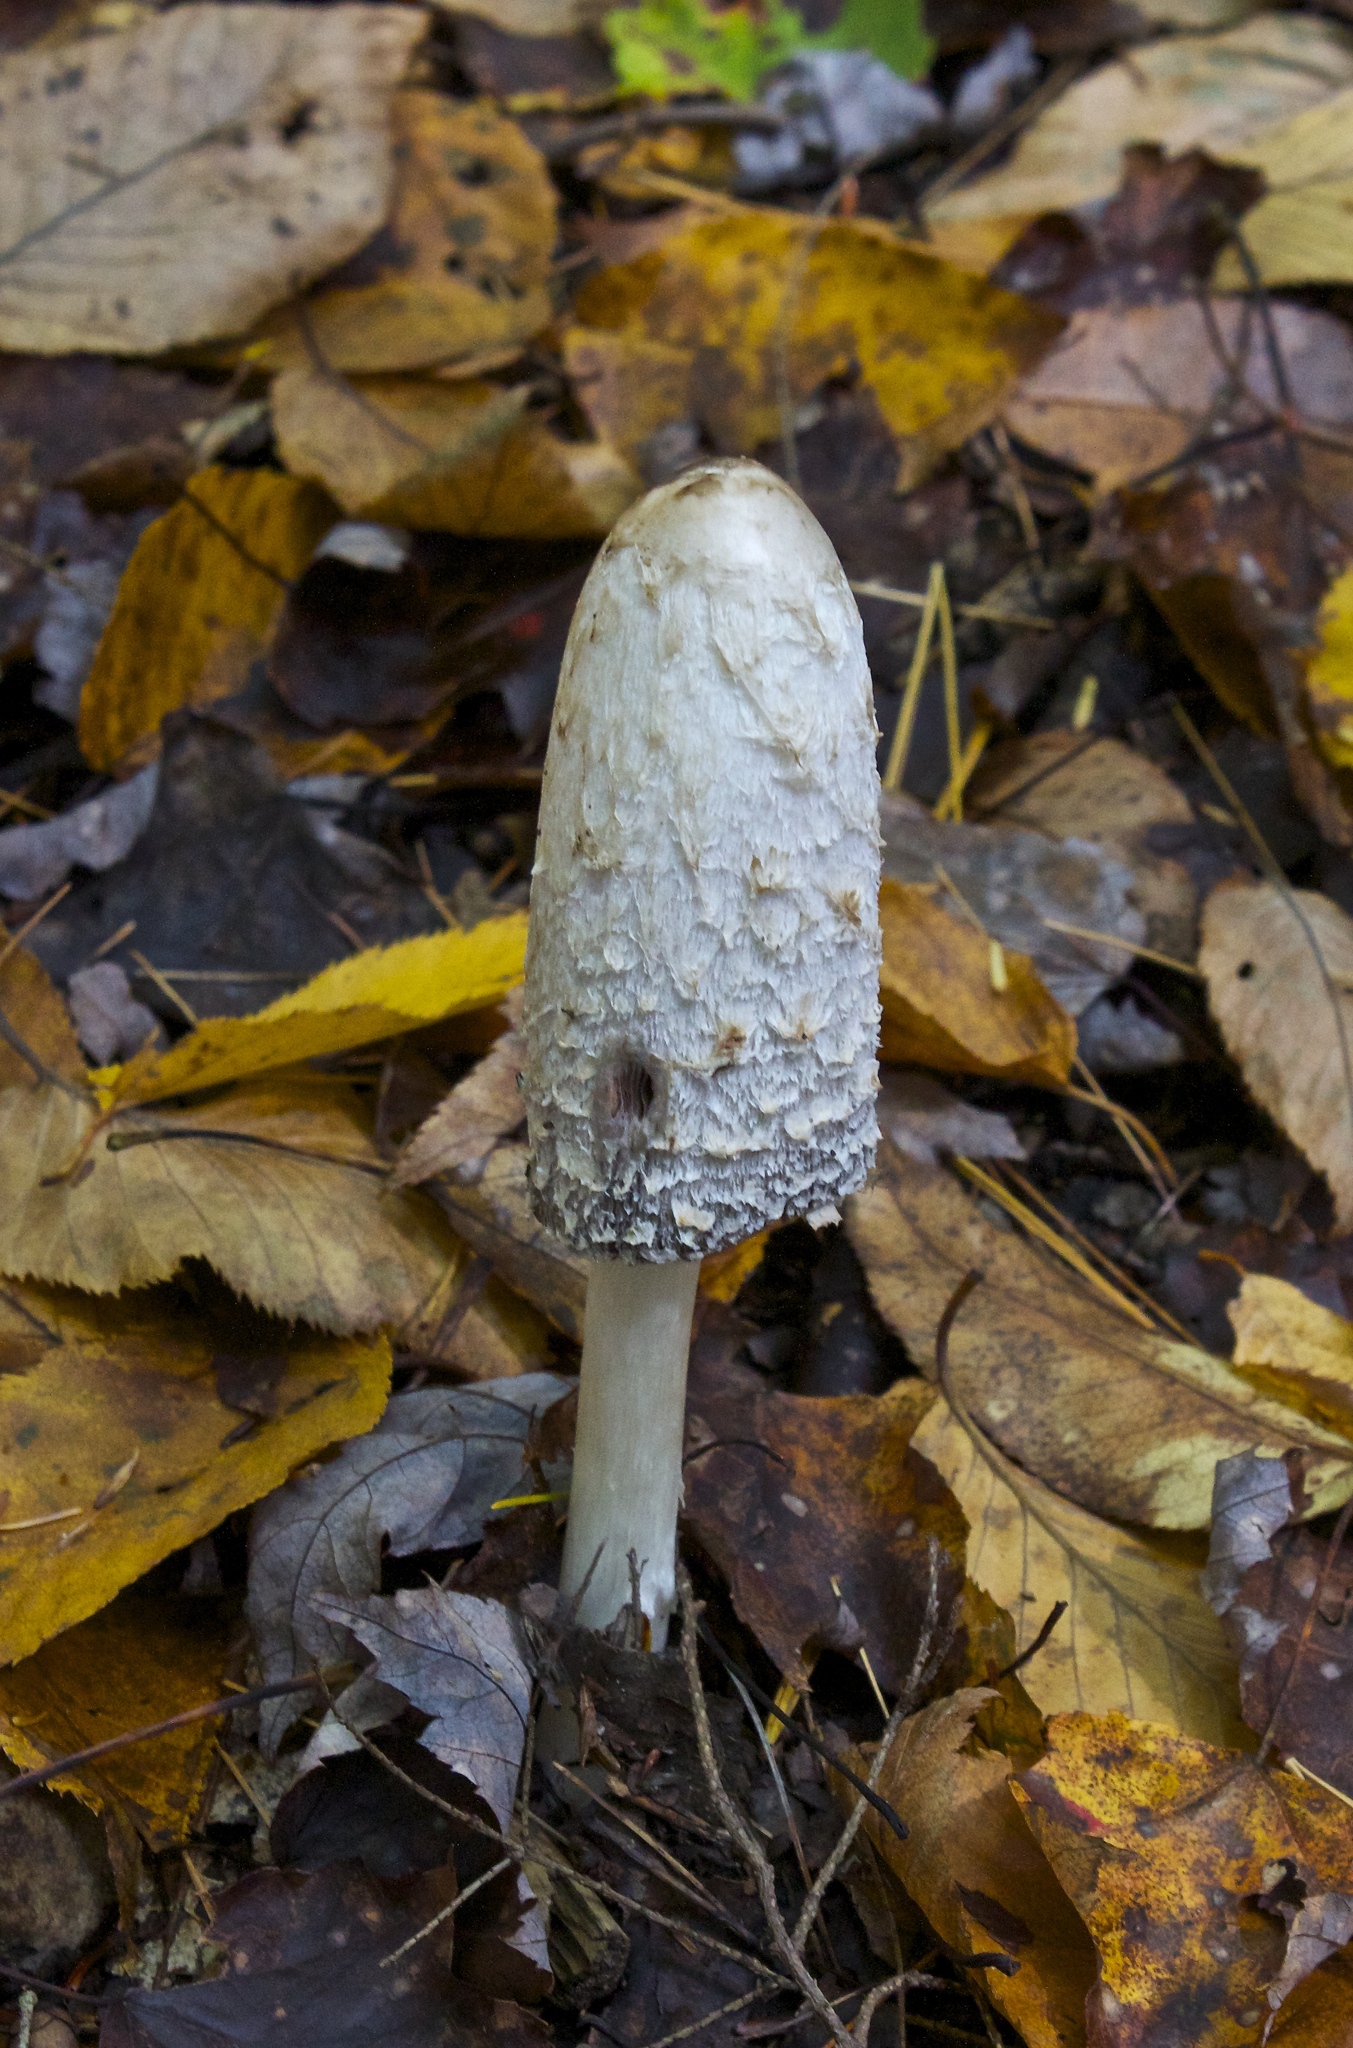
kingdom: Fungi
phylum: Basidiomycota
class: Agaricomycetes
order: Agaricales
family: Agaricaceae
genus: Coprinus
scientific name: Coprinus comatus
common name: Lawyer's wig
